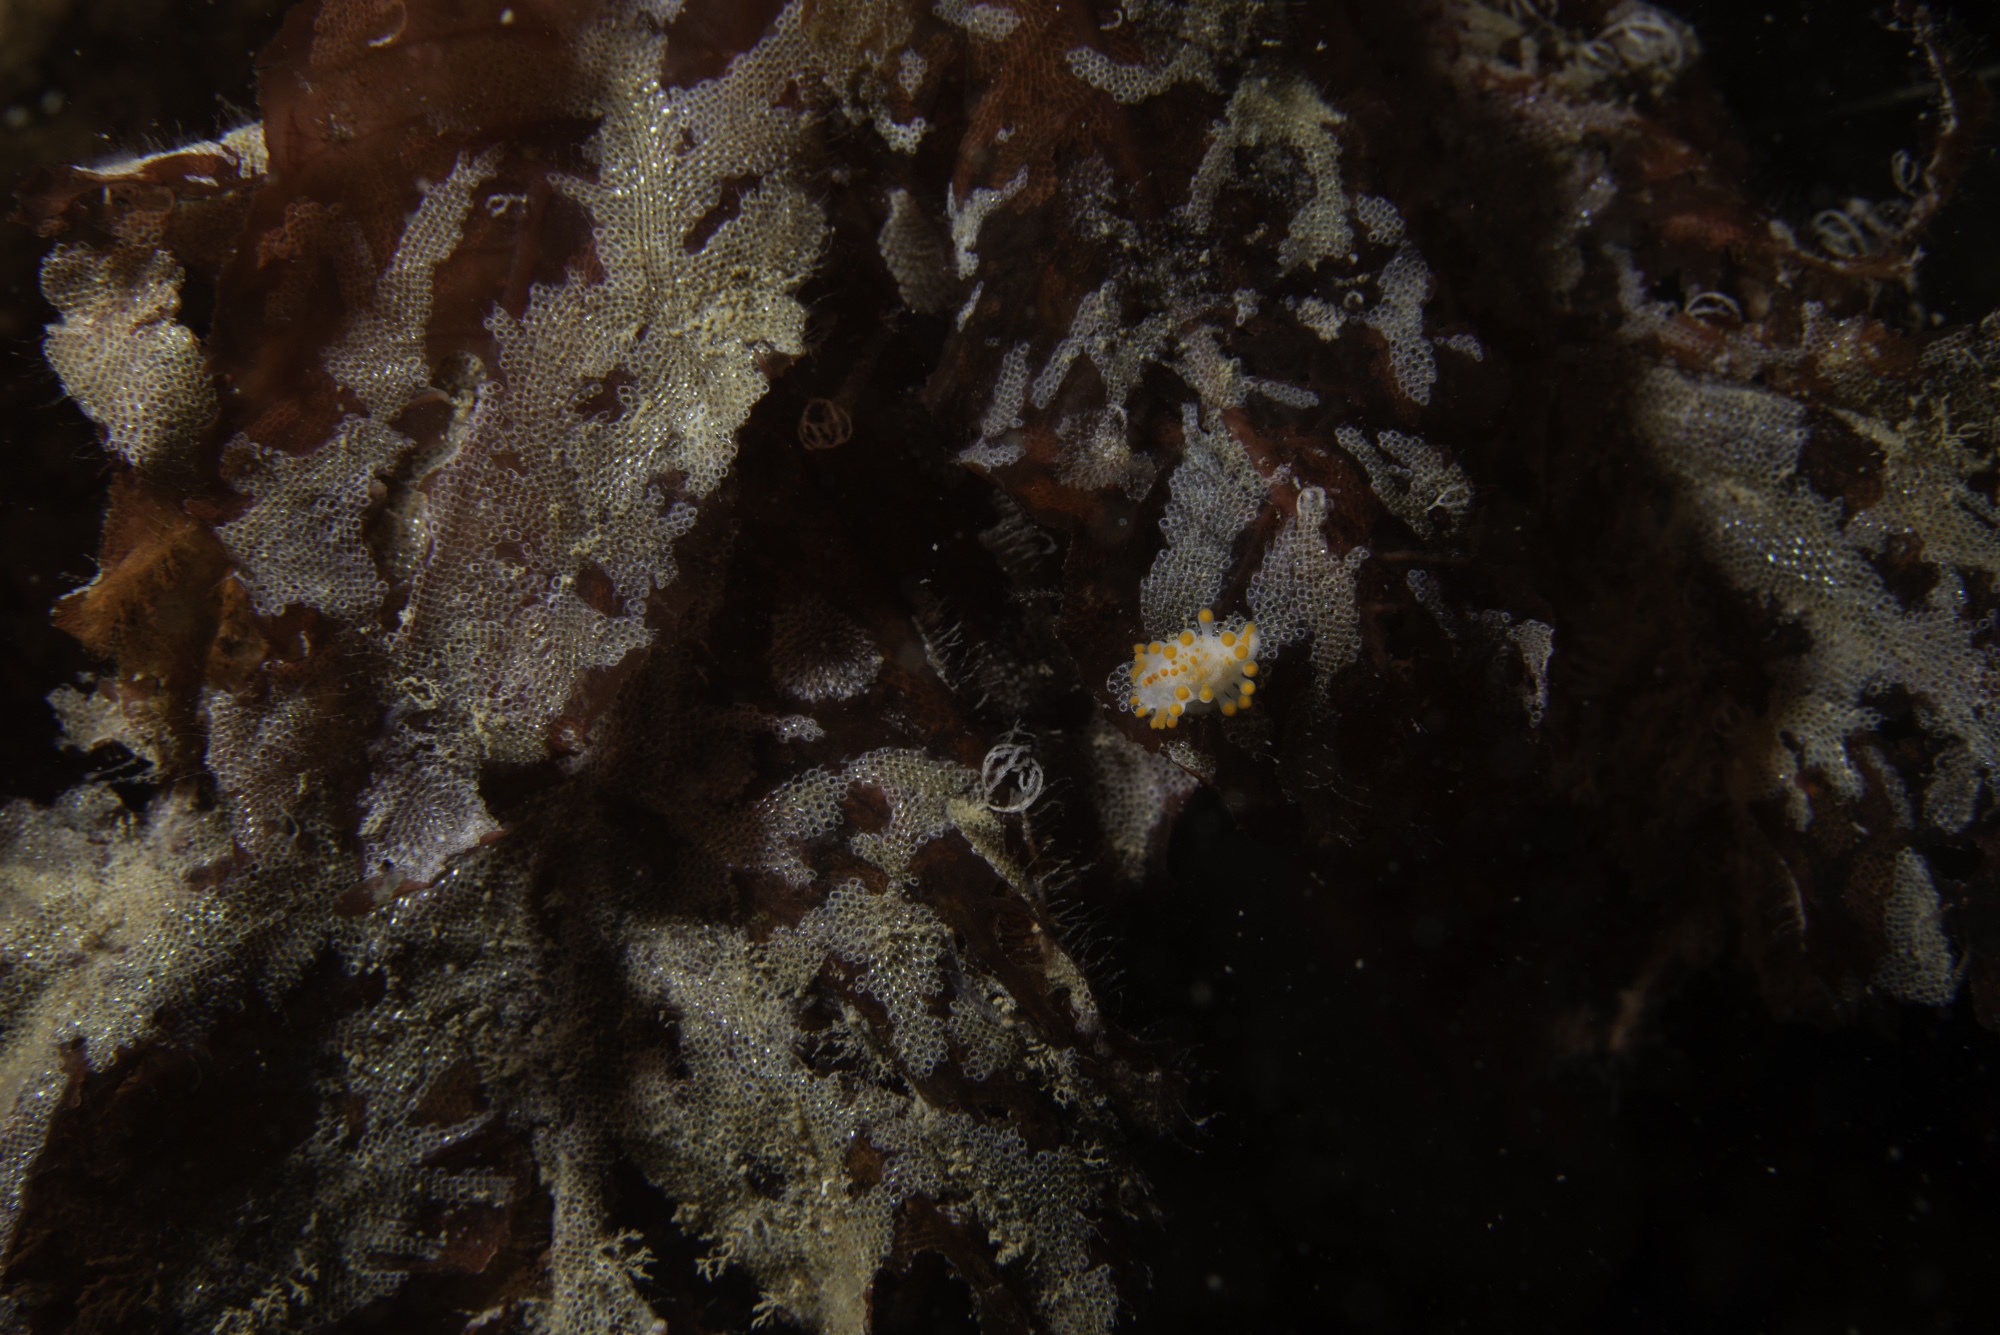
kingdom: Animalia
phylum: Mollusca
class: Gastropoda
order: Nudibranchia
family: Polyceridae
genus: Limacia
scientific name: Limacia clavigera
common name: Orange-clubbed sea slug
